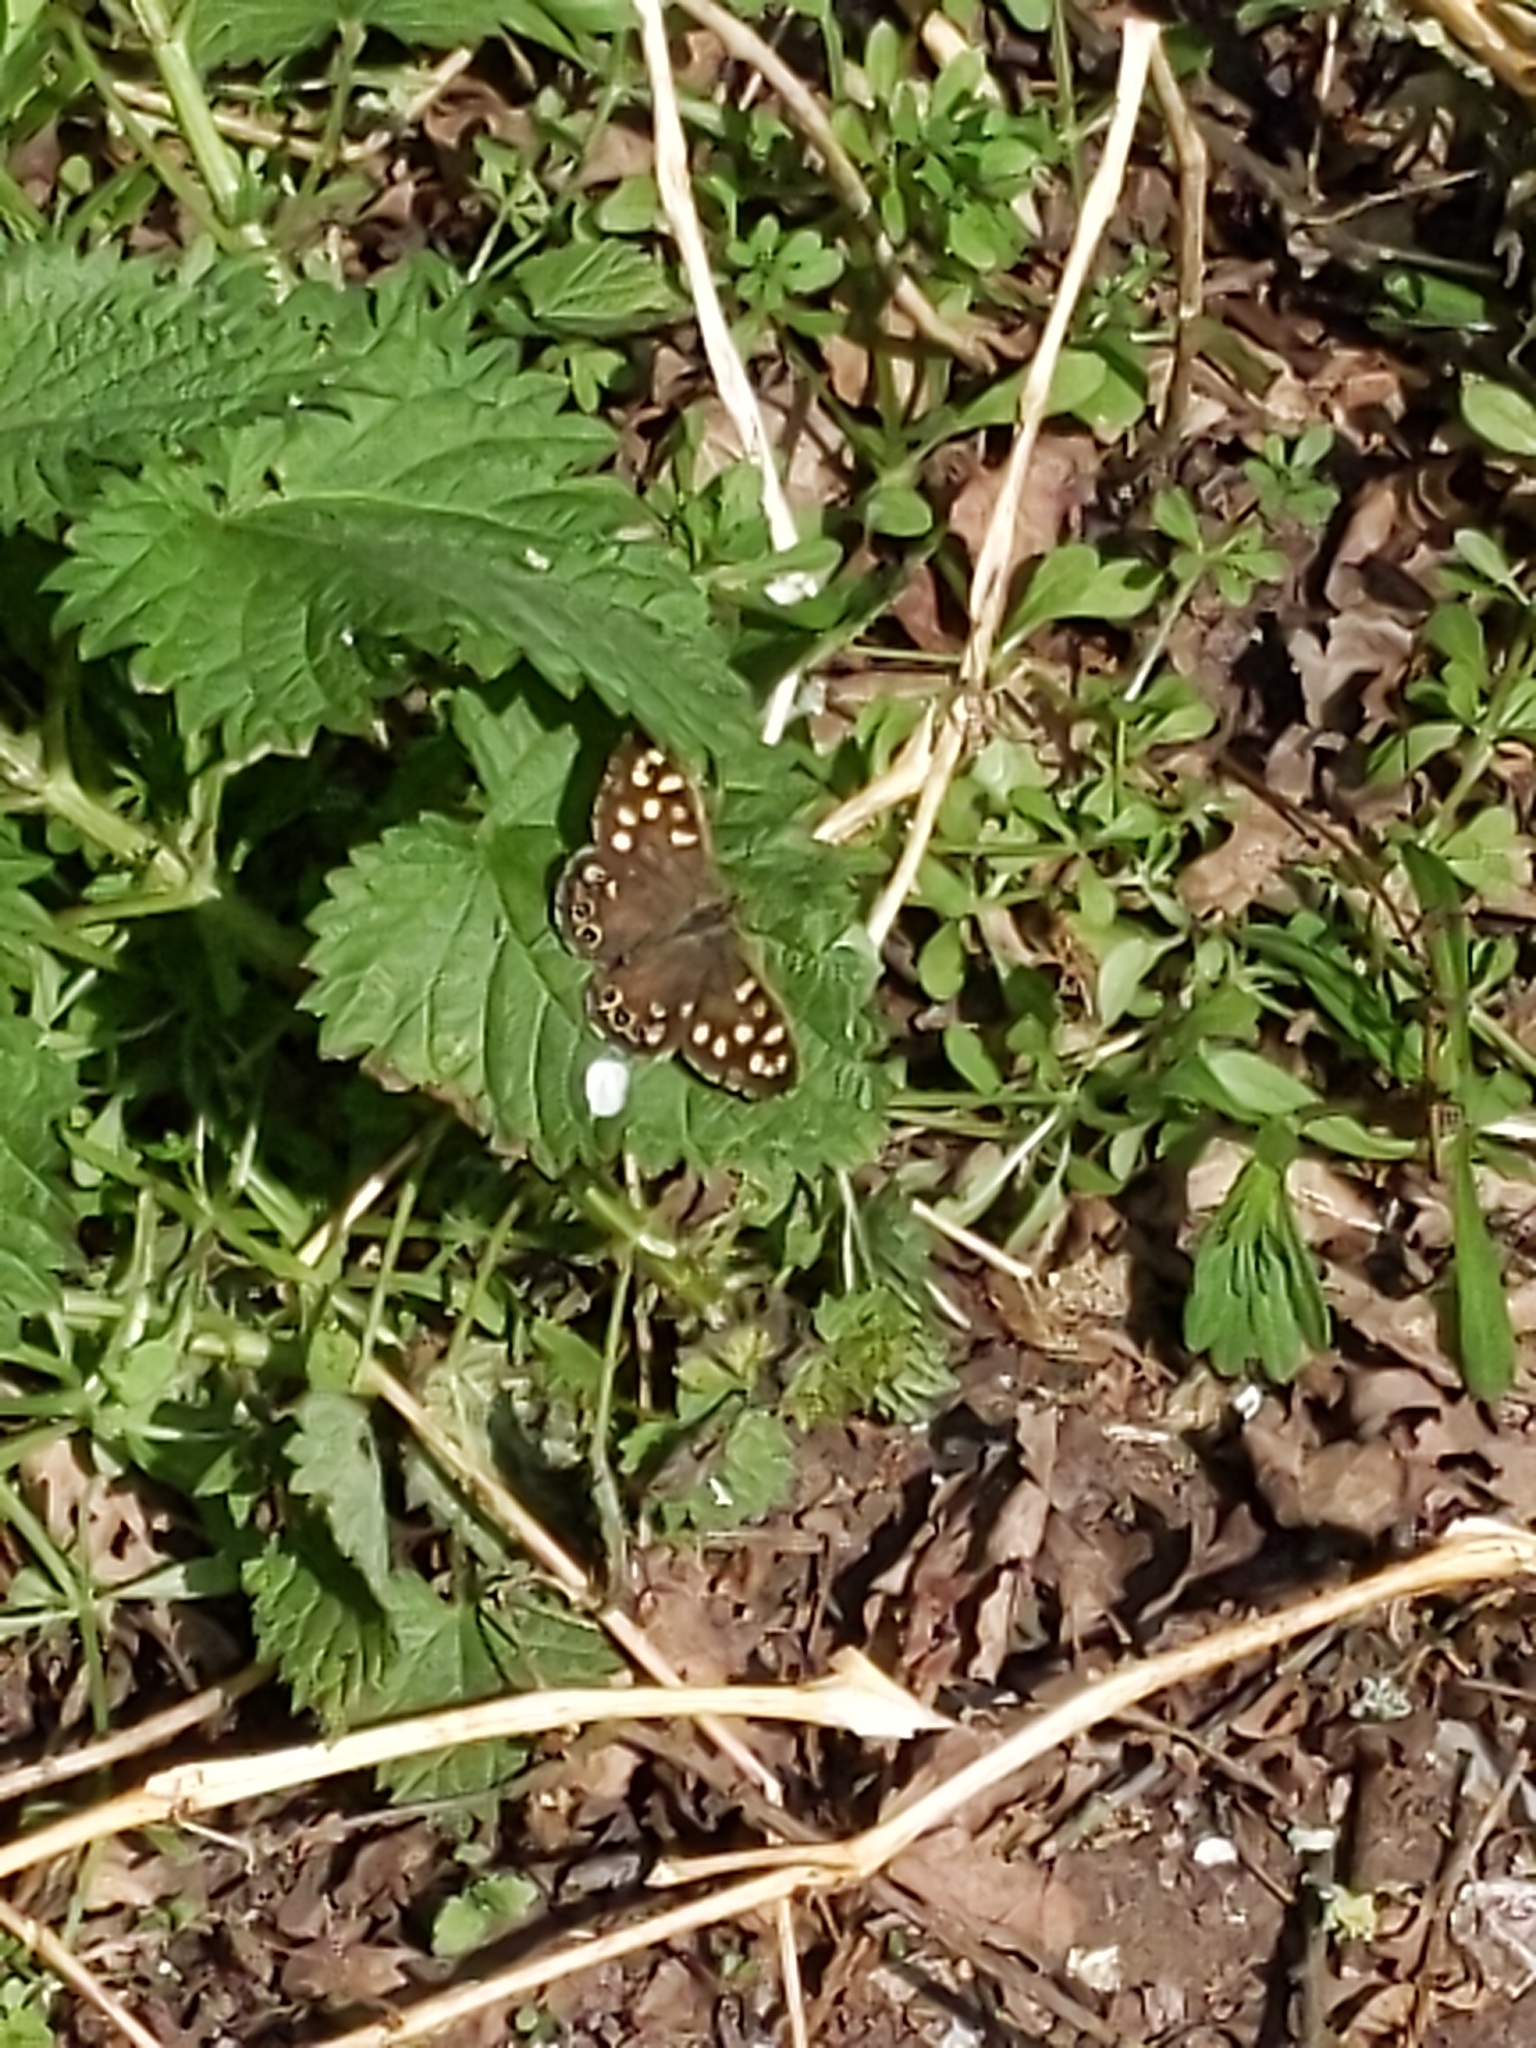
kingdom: Animalia
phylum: Arthropoda
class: Insecta
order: Lepidoptera
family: Nymphalidae
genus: Pararge
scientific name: Pararge aegeria
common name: Speckled wood
